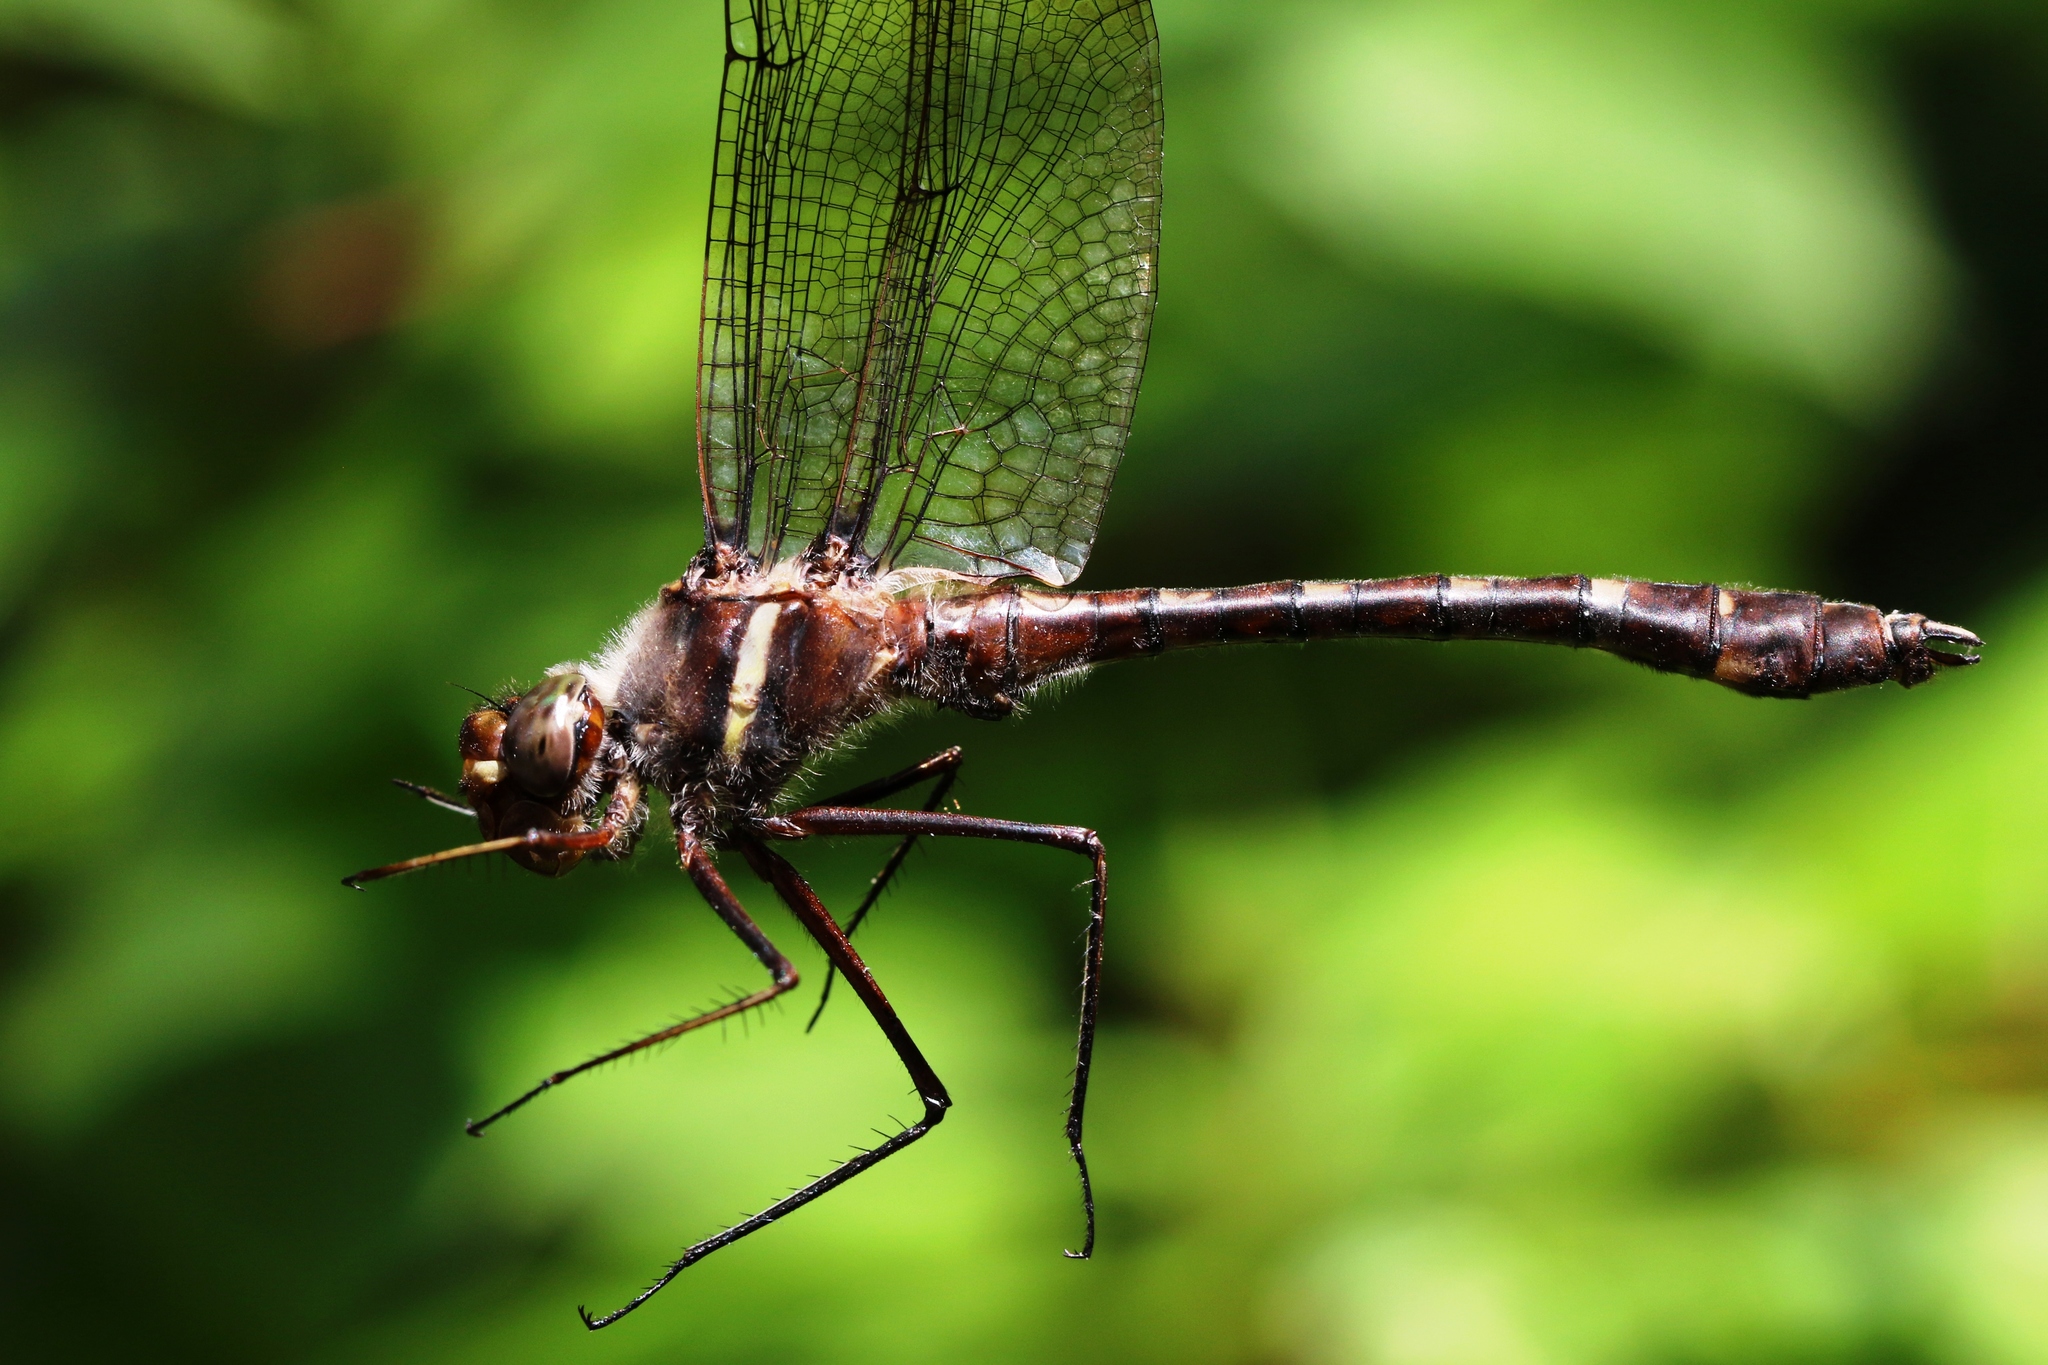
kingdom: Animalia
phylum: Arthropoda
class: Insecta
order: Odonata
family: Macromiidae
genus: Didymops
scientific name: Didymops transversa
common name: Stream cruiser
